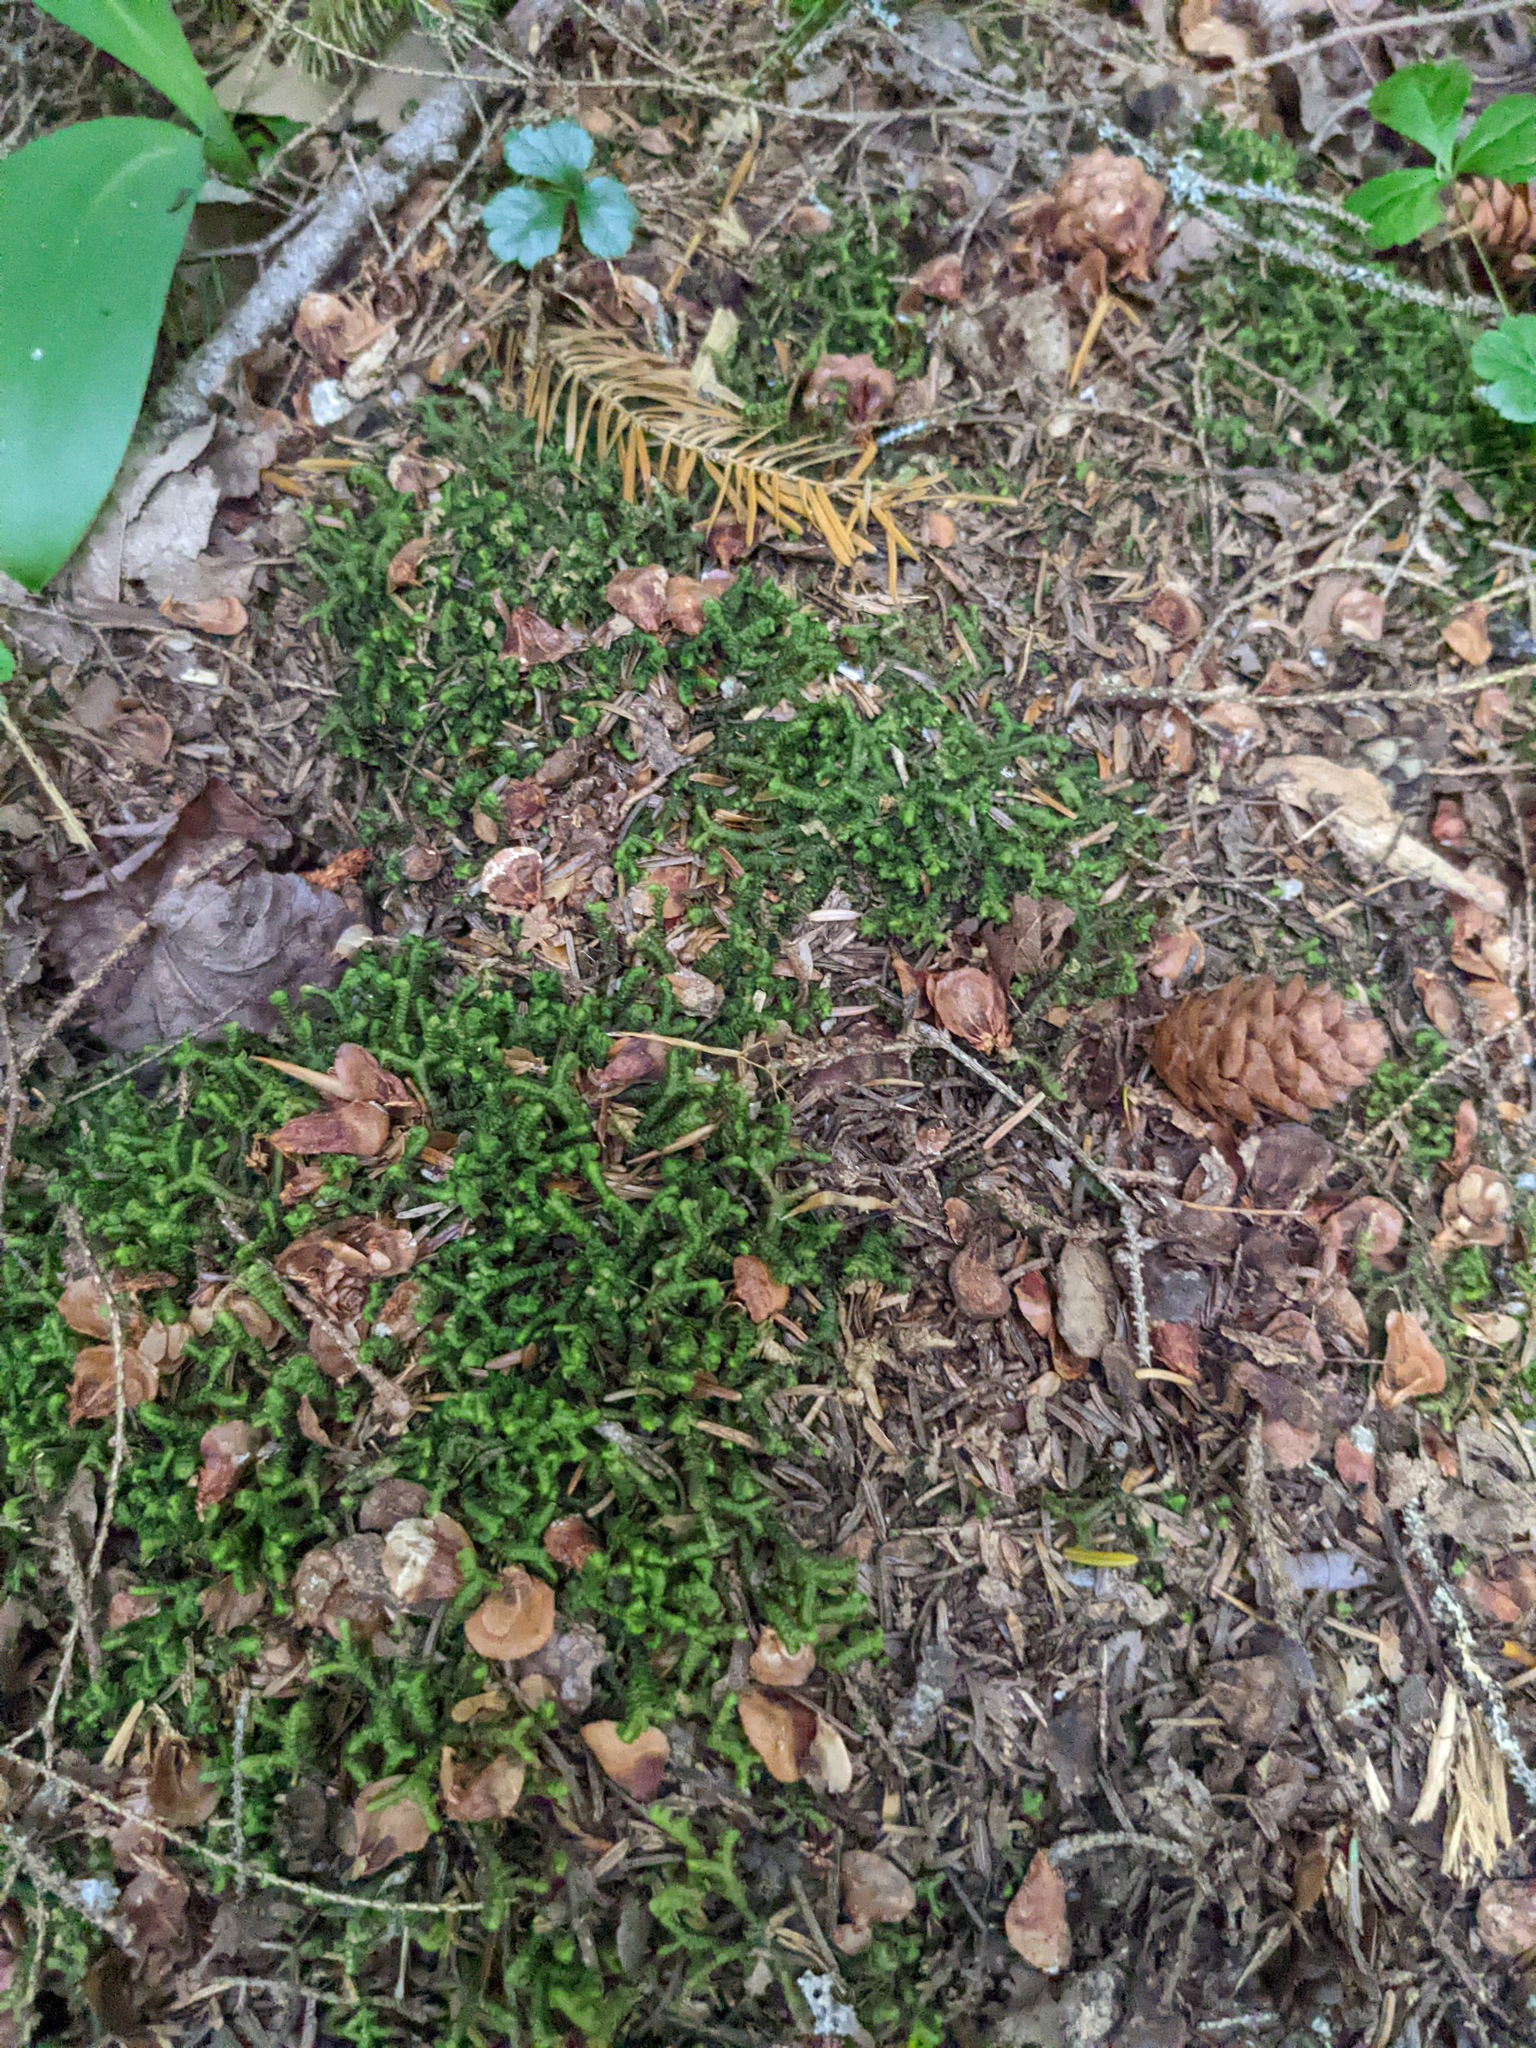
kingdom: Plantae
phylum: Marchantiophyta
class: Jungermanniopsida
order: Jungermanniales
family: Lepidoziaceae
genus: Bazzania
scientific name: Bazzania trilobata
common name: Three-lobed whipwort
